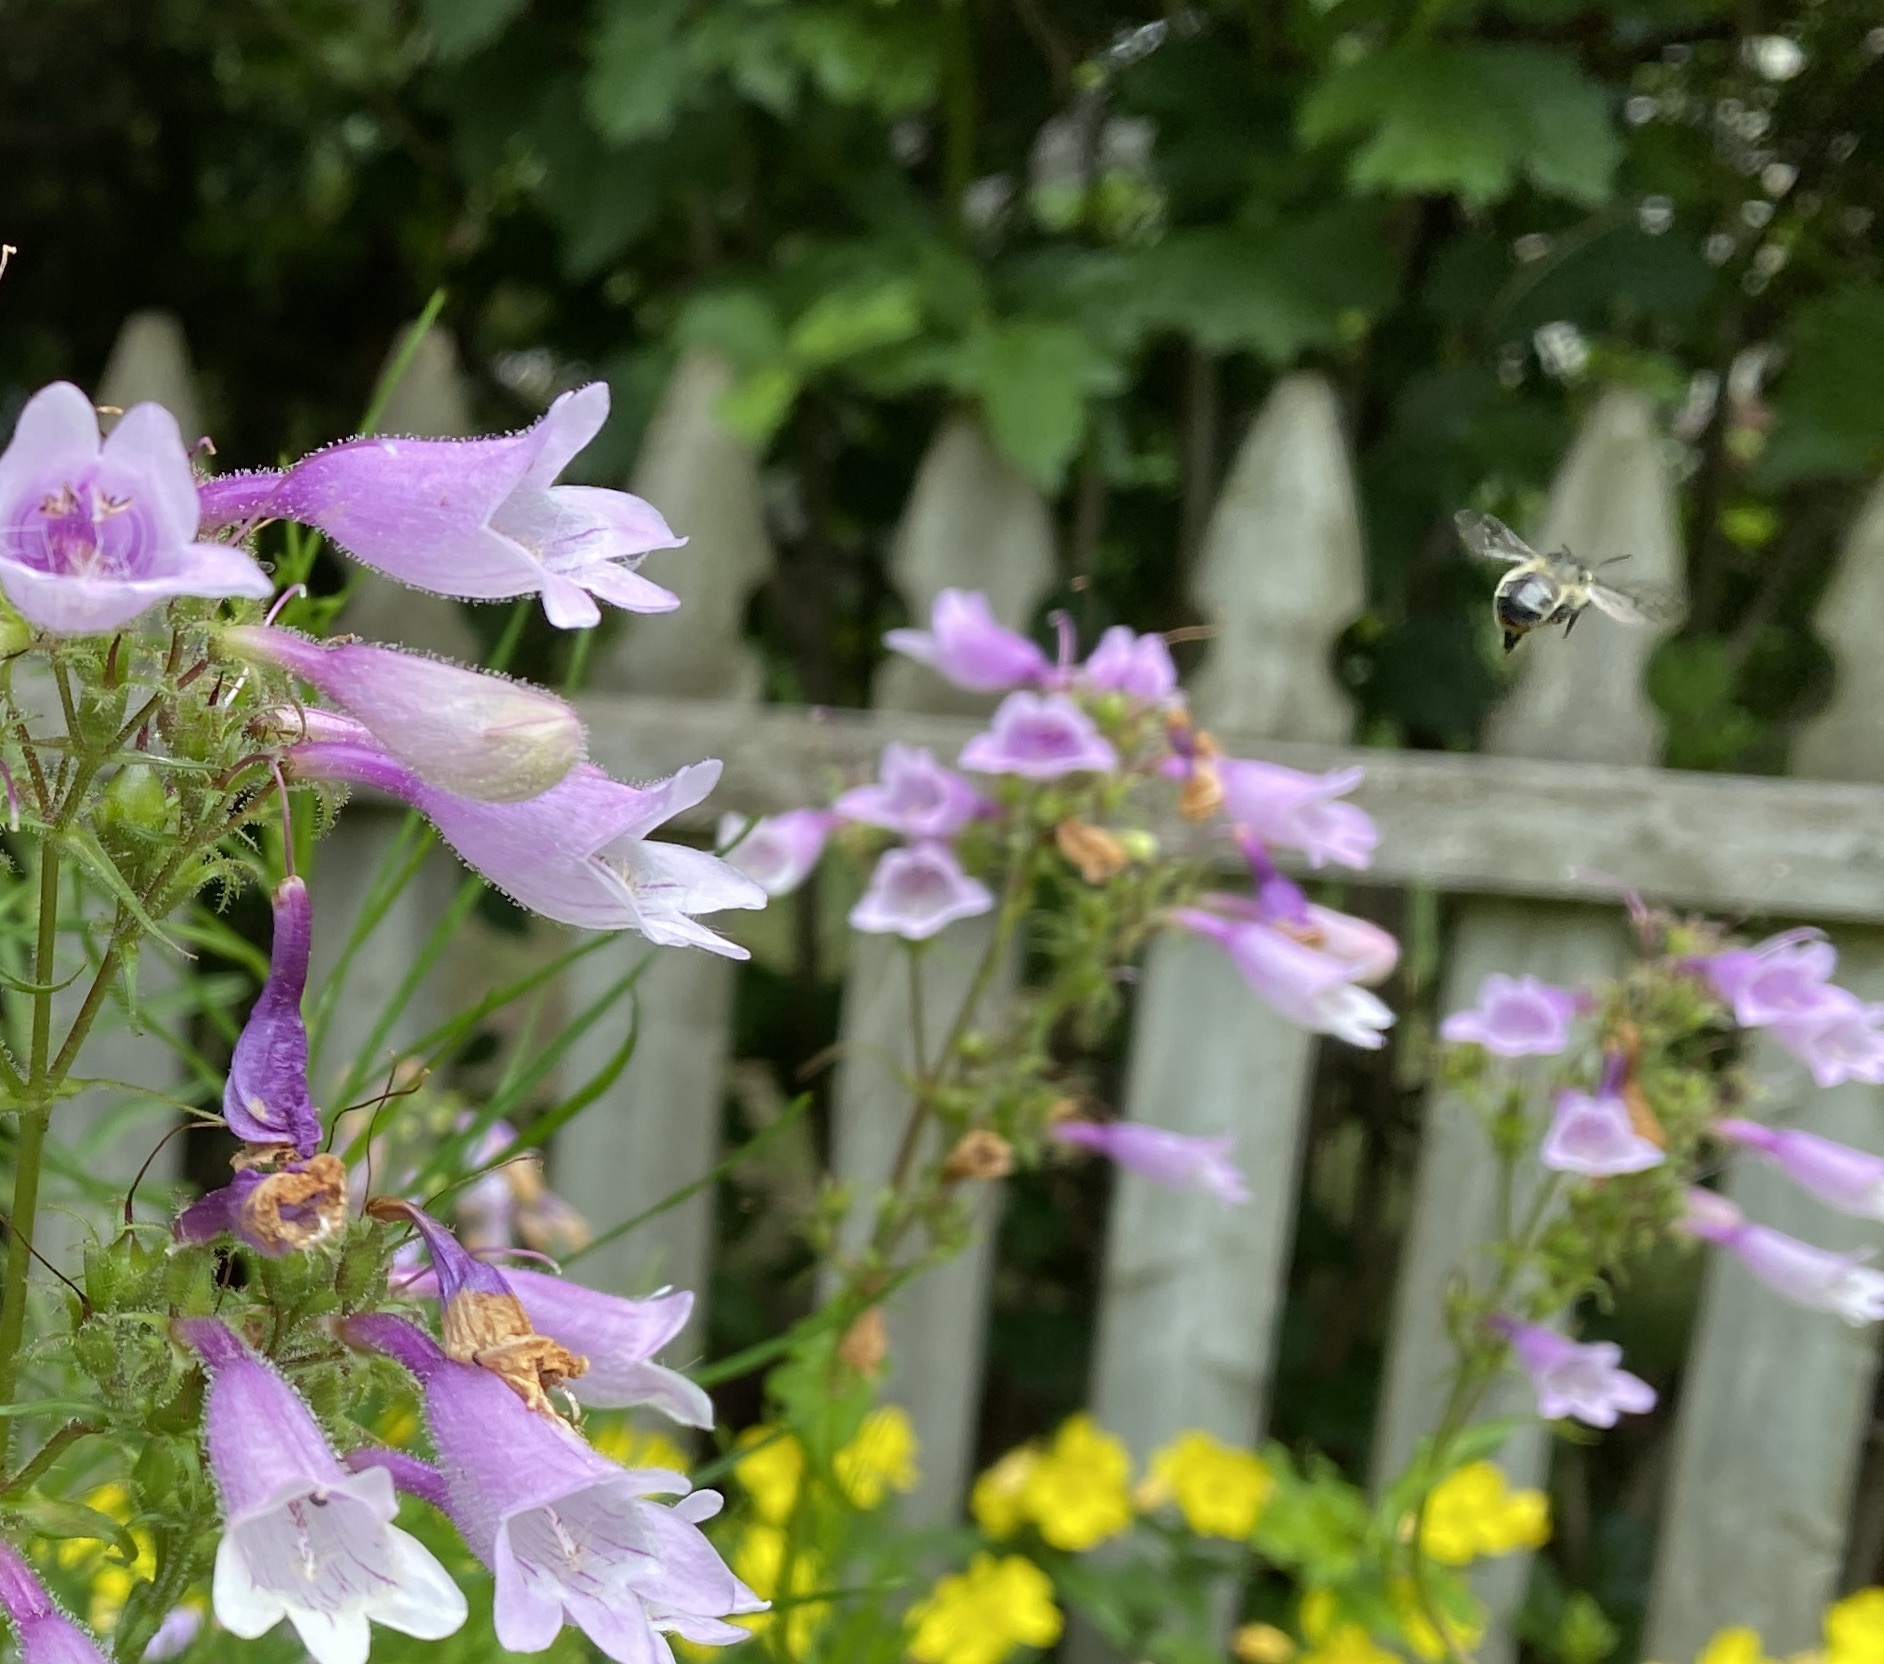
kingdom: Animalia
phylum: Arthropoda
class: Insecta
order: Hymenoptera
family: Apidae
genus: Anthophora
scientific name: Anthophora terminalis
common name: Orange-tipped wood-digger bee
